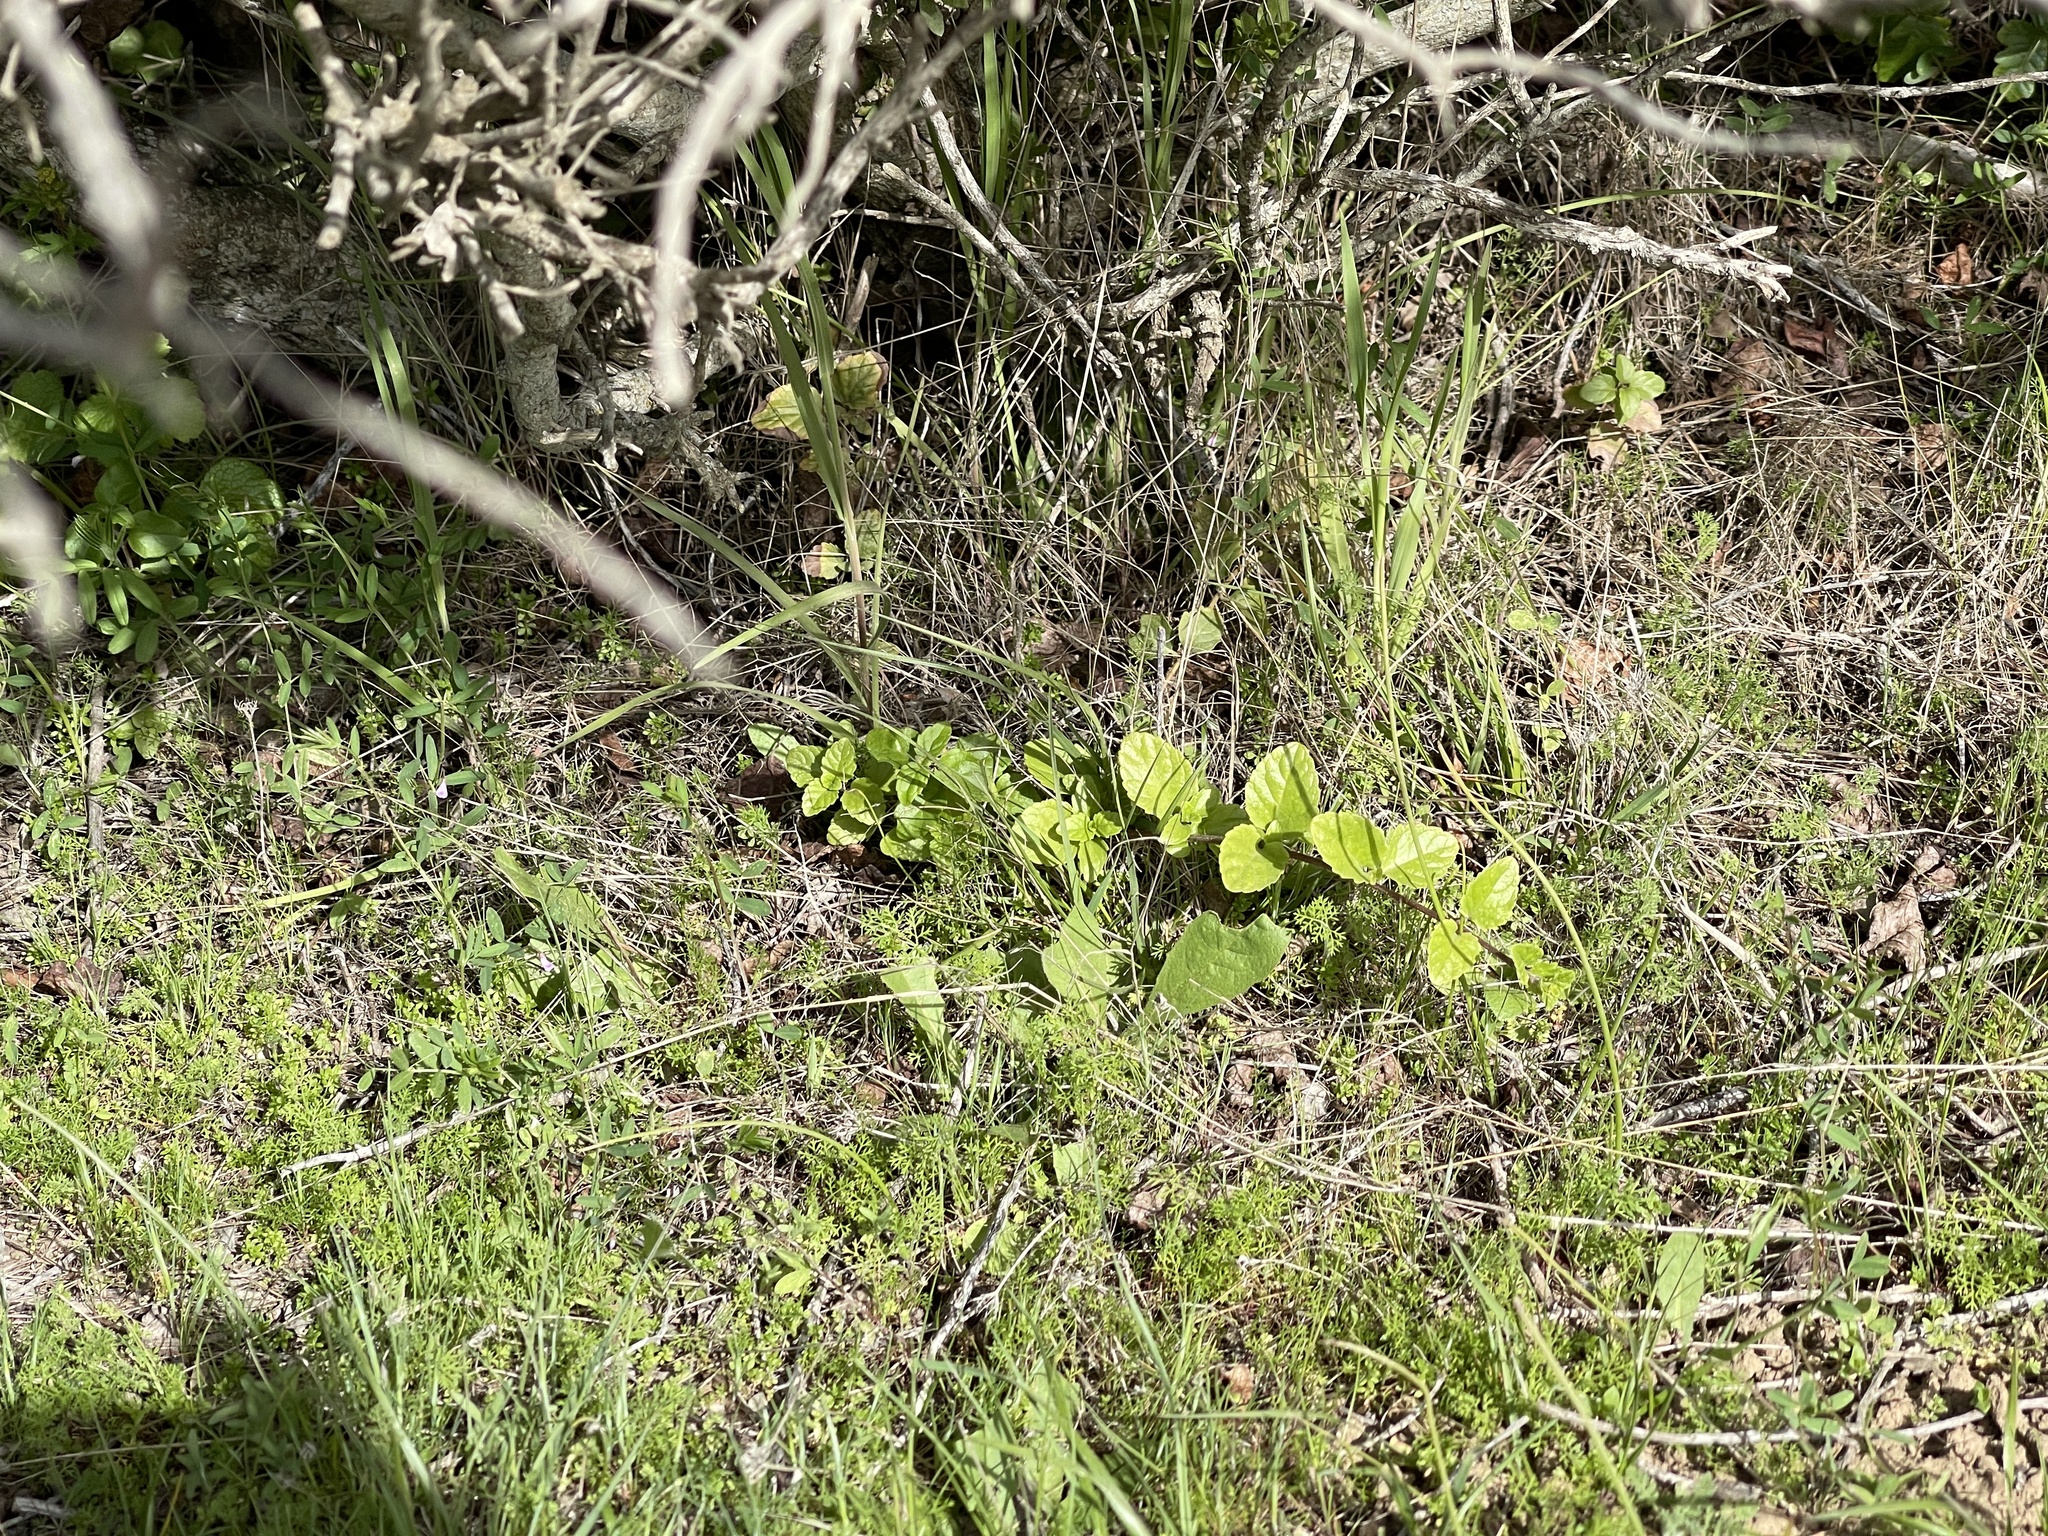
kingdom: Plantae
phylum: Tracheophyta
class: Magnoliopsida
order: Lamiales
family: Lamiaceae
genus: Micromeria
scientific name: Micromeria douglasii
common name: Yerba buena
